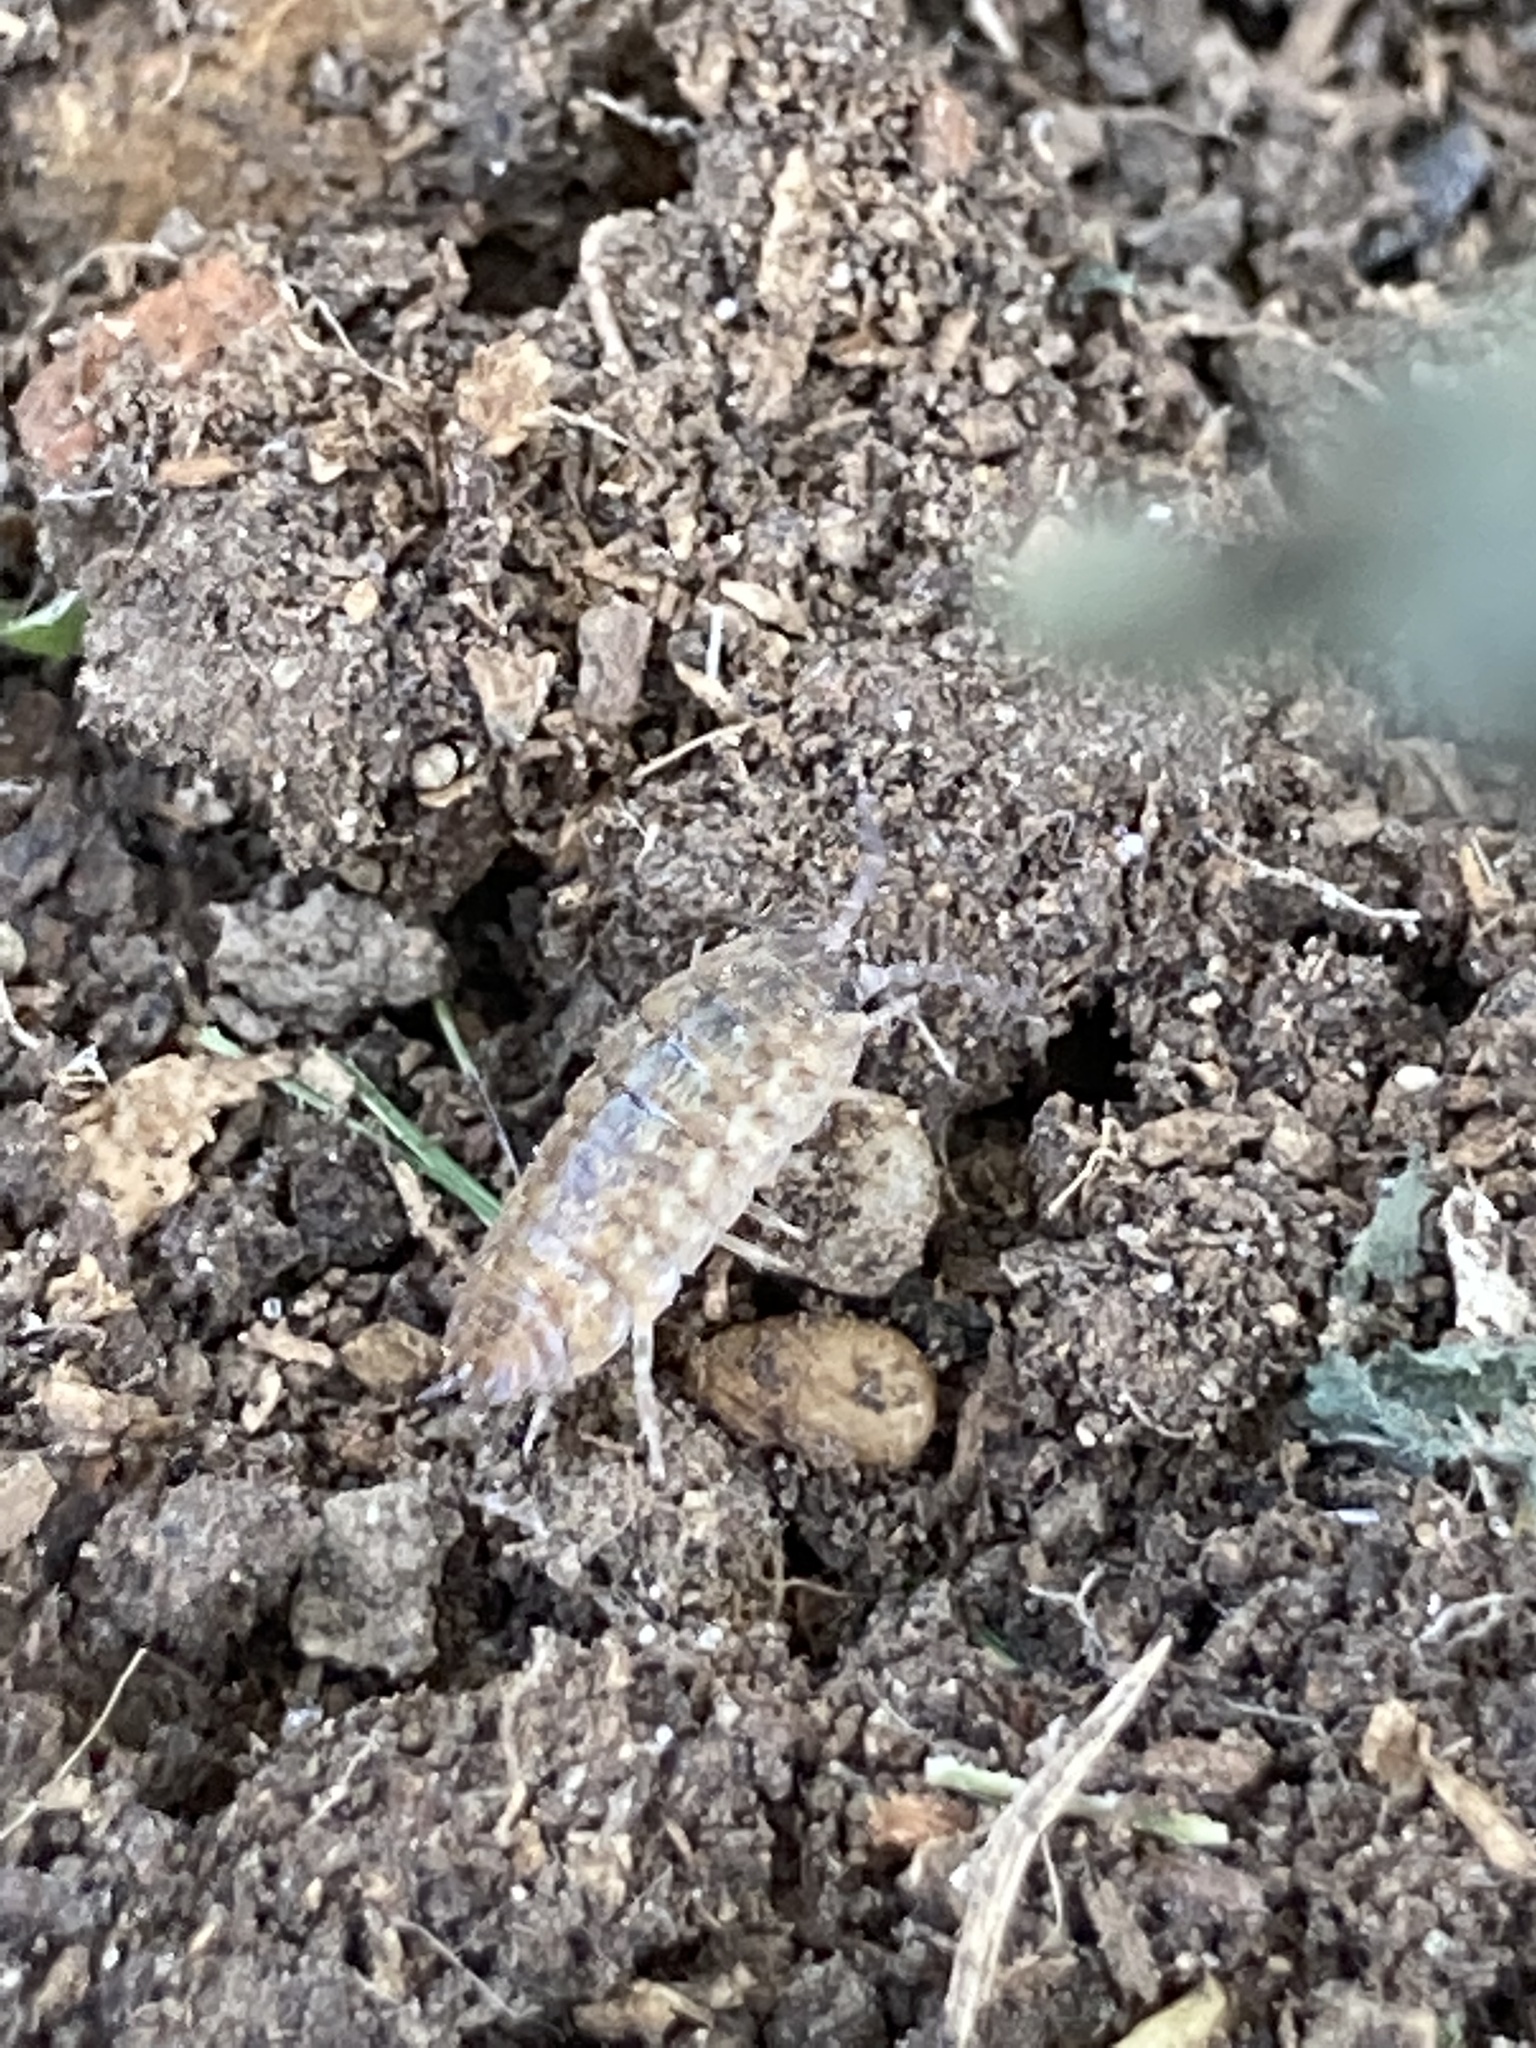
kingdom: Animalia
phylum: Arthropoda
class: Malacostraca
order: Isopoda
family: Trachelipodidae
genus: Trachelipus
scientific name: Trachelipus rathkii
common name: Isopod
